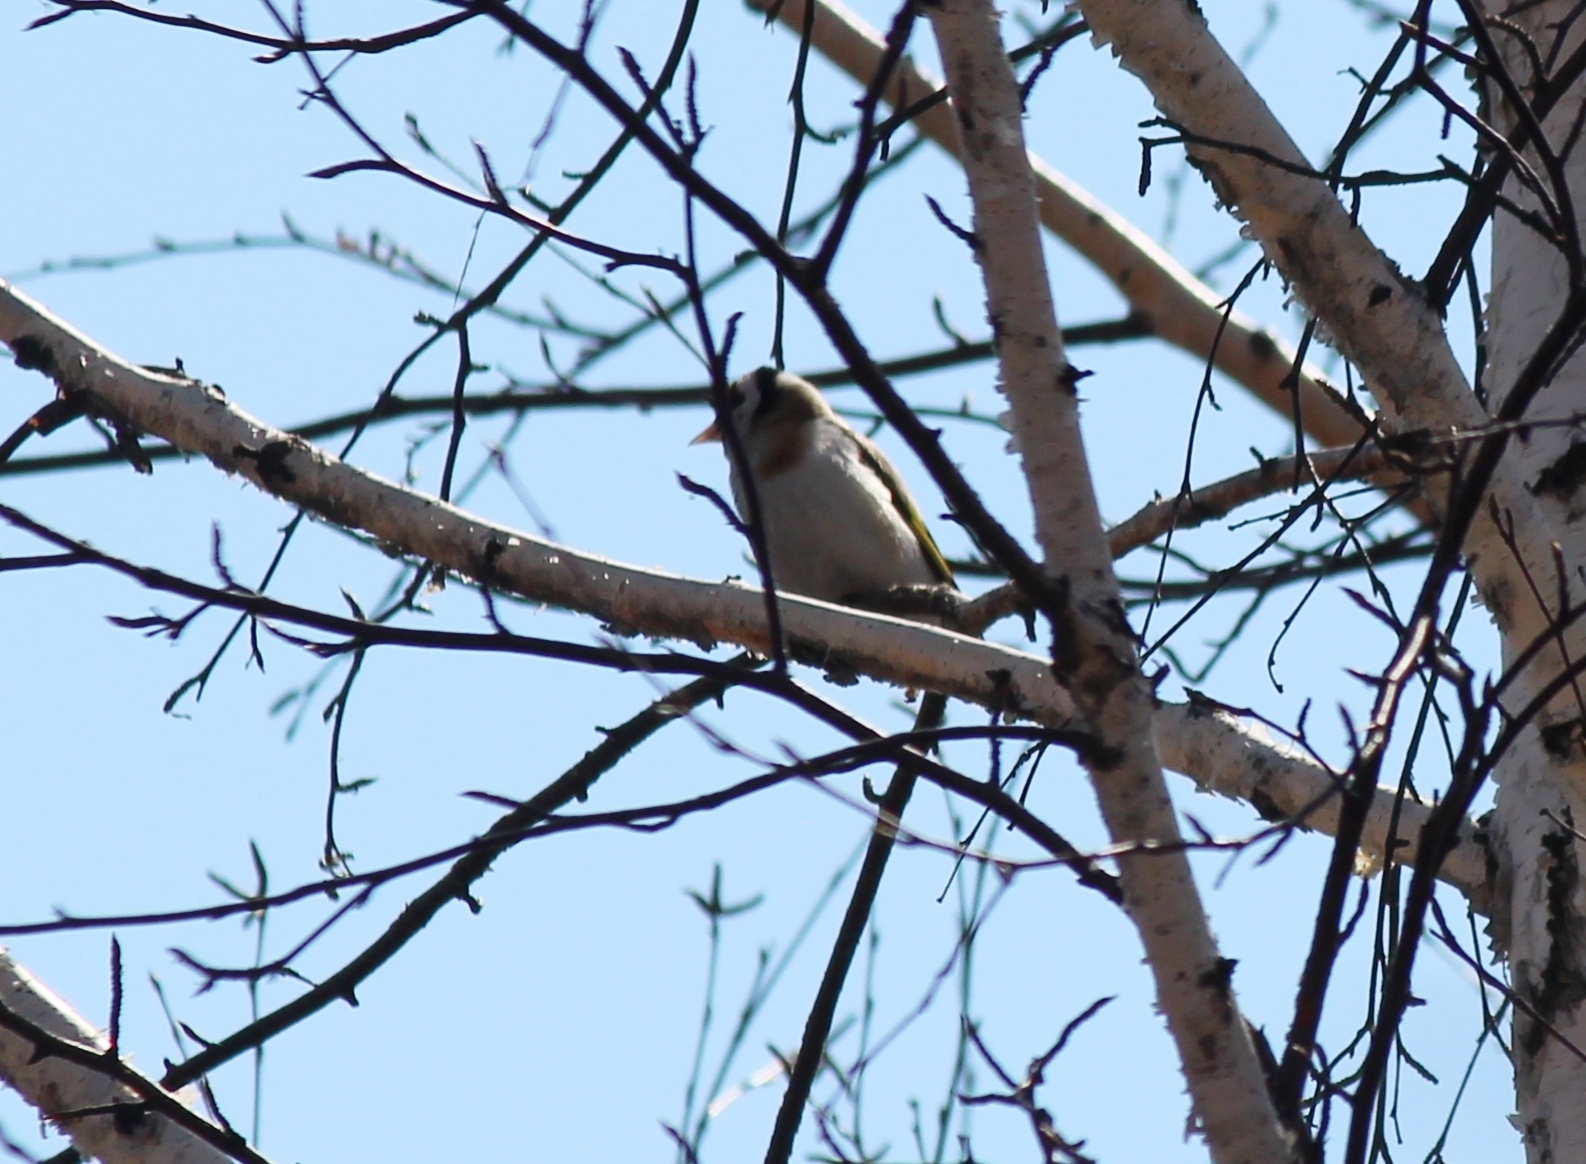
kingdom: Animalia
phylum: Chordata
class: Aves
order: Passeriformes
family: Fringillidae
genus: Carduelis
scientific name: Carduelis carduelis
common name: European goldfinch
